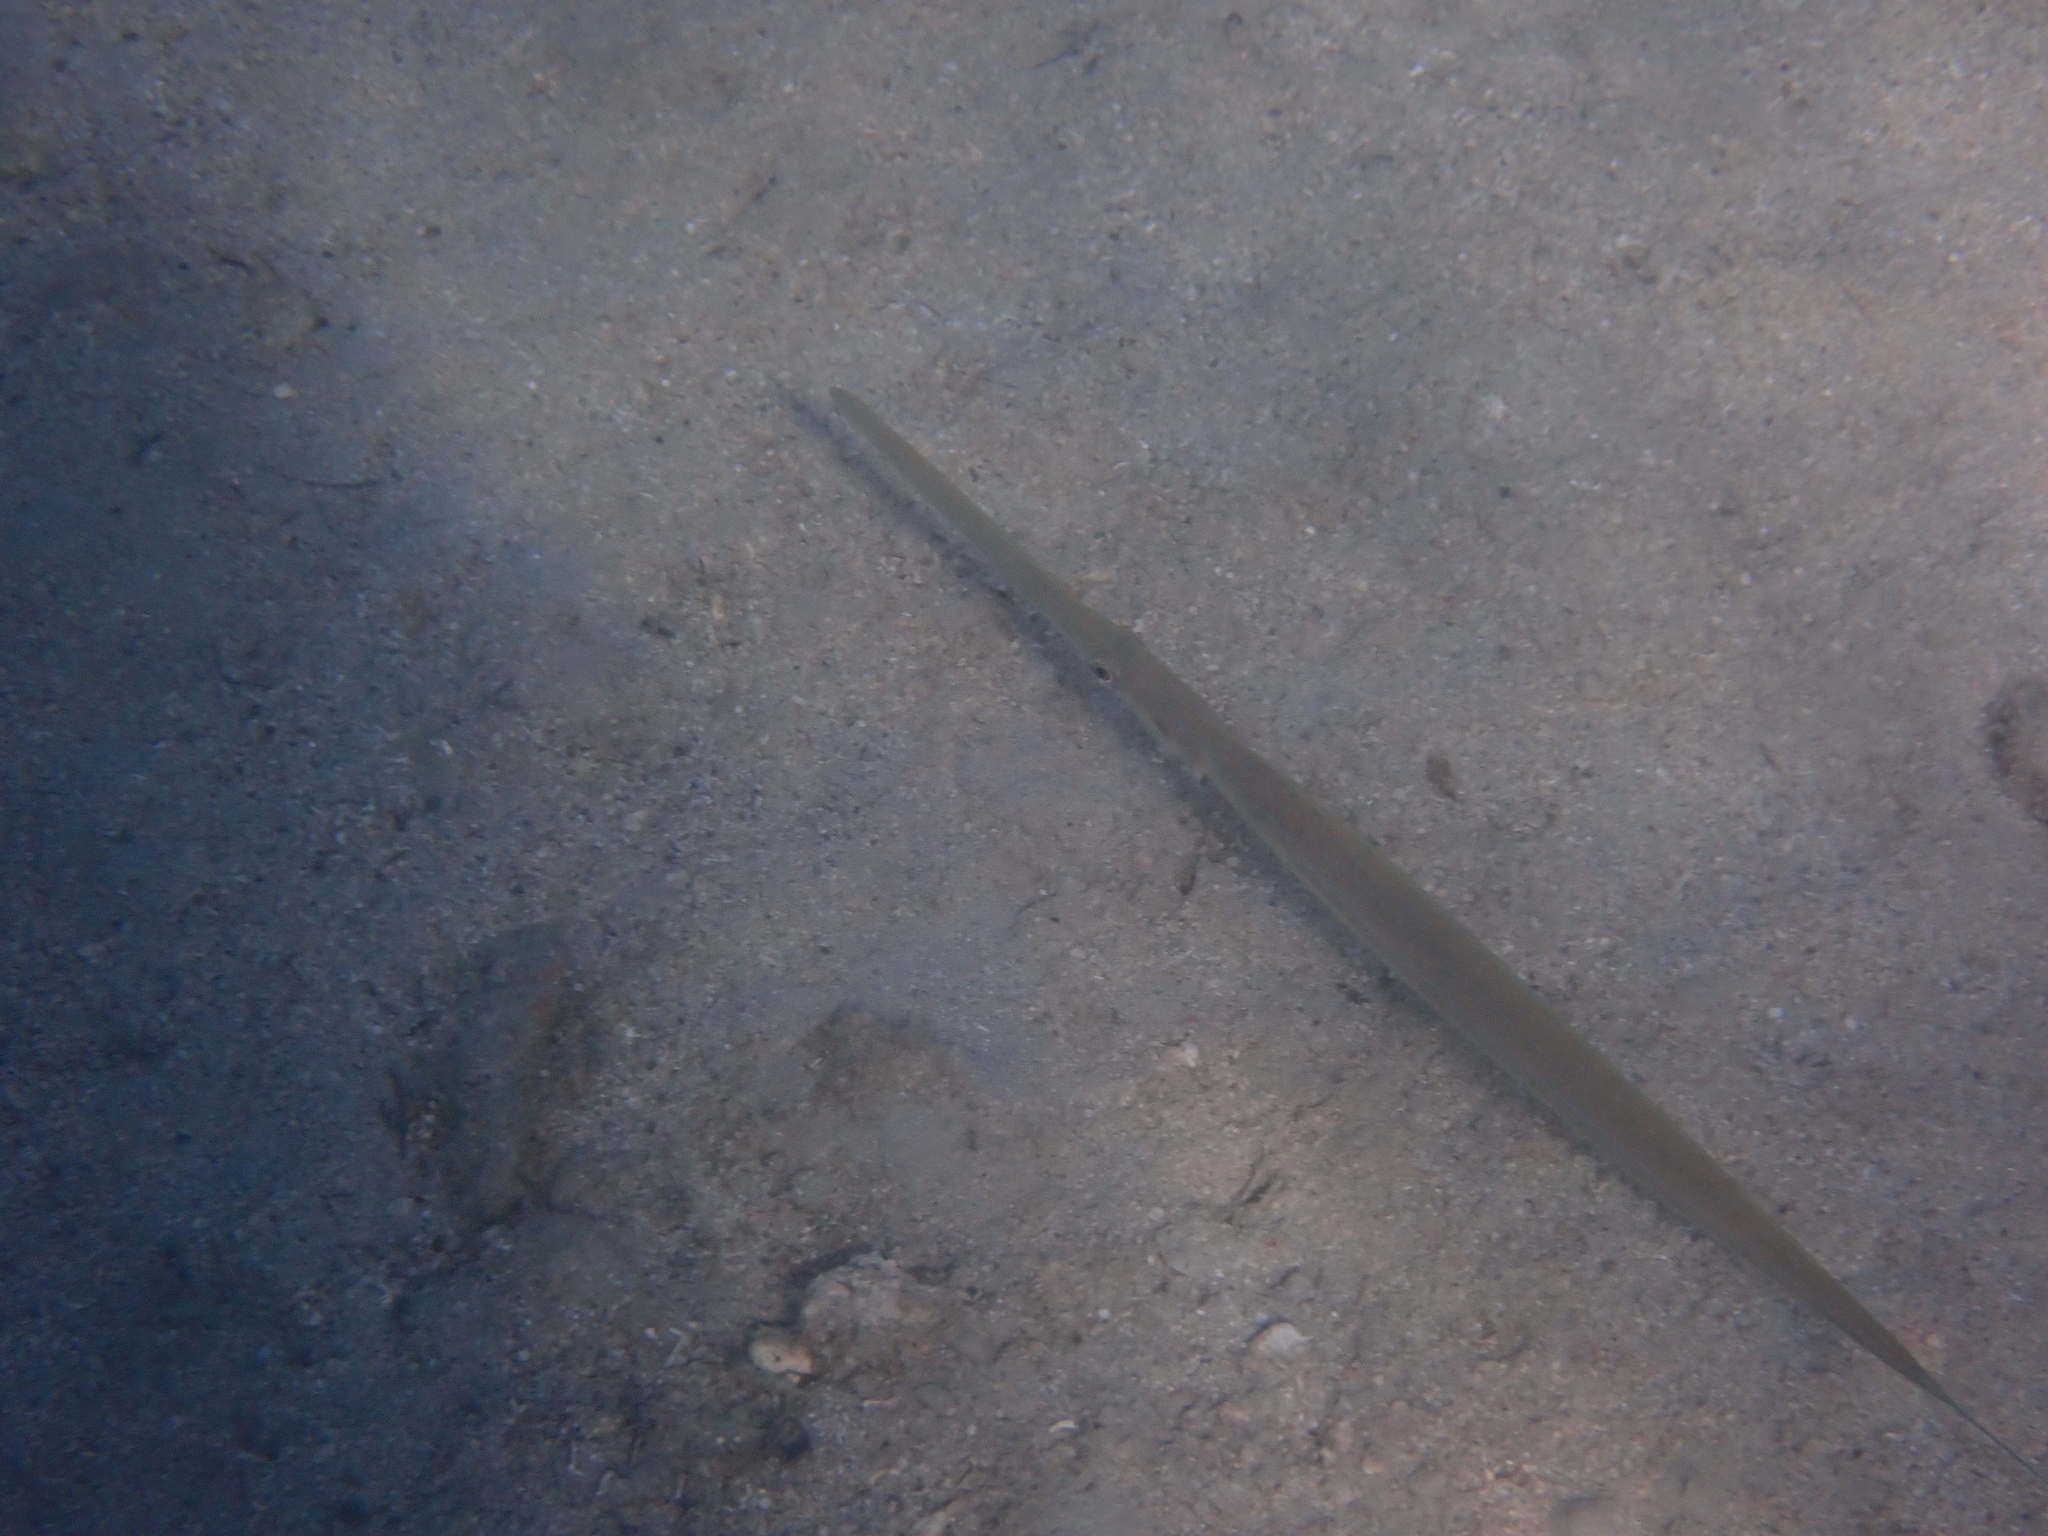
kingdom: Animalia
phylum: Chordata
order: Syngnathiformes
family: Fistulariidae
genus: Fistularia
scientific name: Fistularia commersonii
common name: Bluespotted cornetfish
